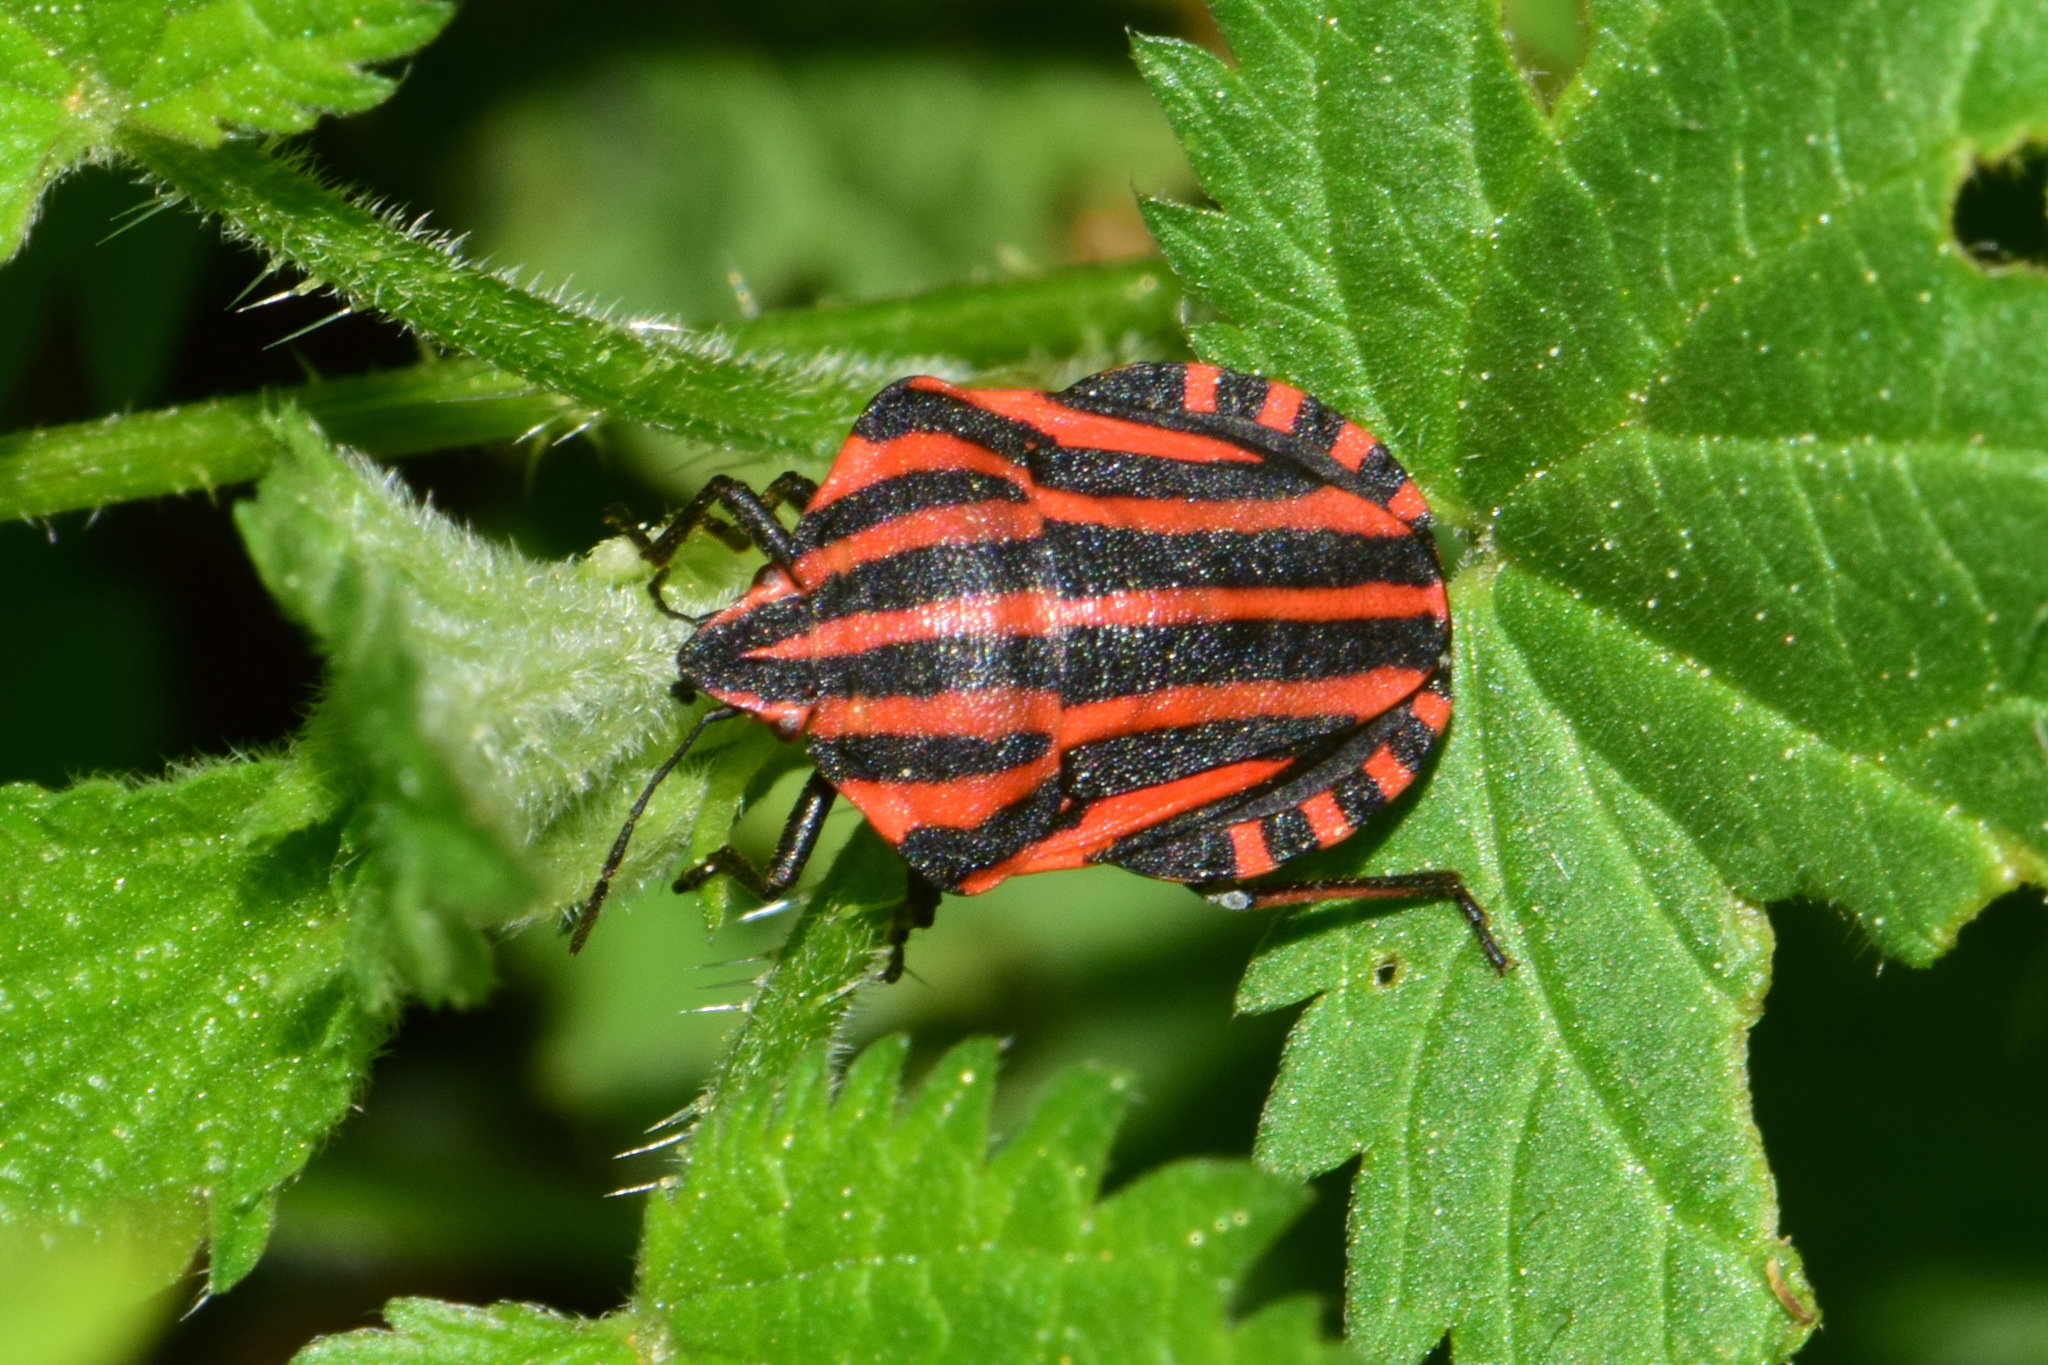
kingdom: Animalia
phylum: Arthropoda
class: Insecta
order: Hemiptera
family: Pentatomidae
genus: Graphosoma
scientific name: Graphosoma italicum
